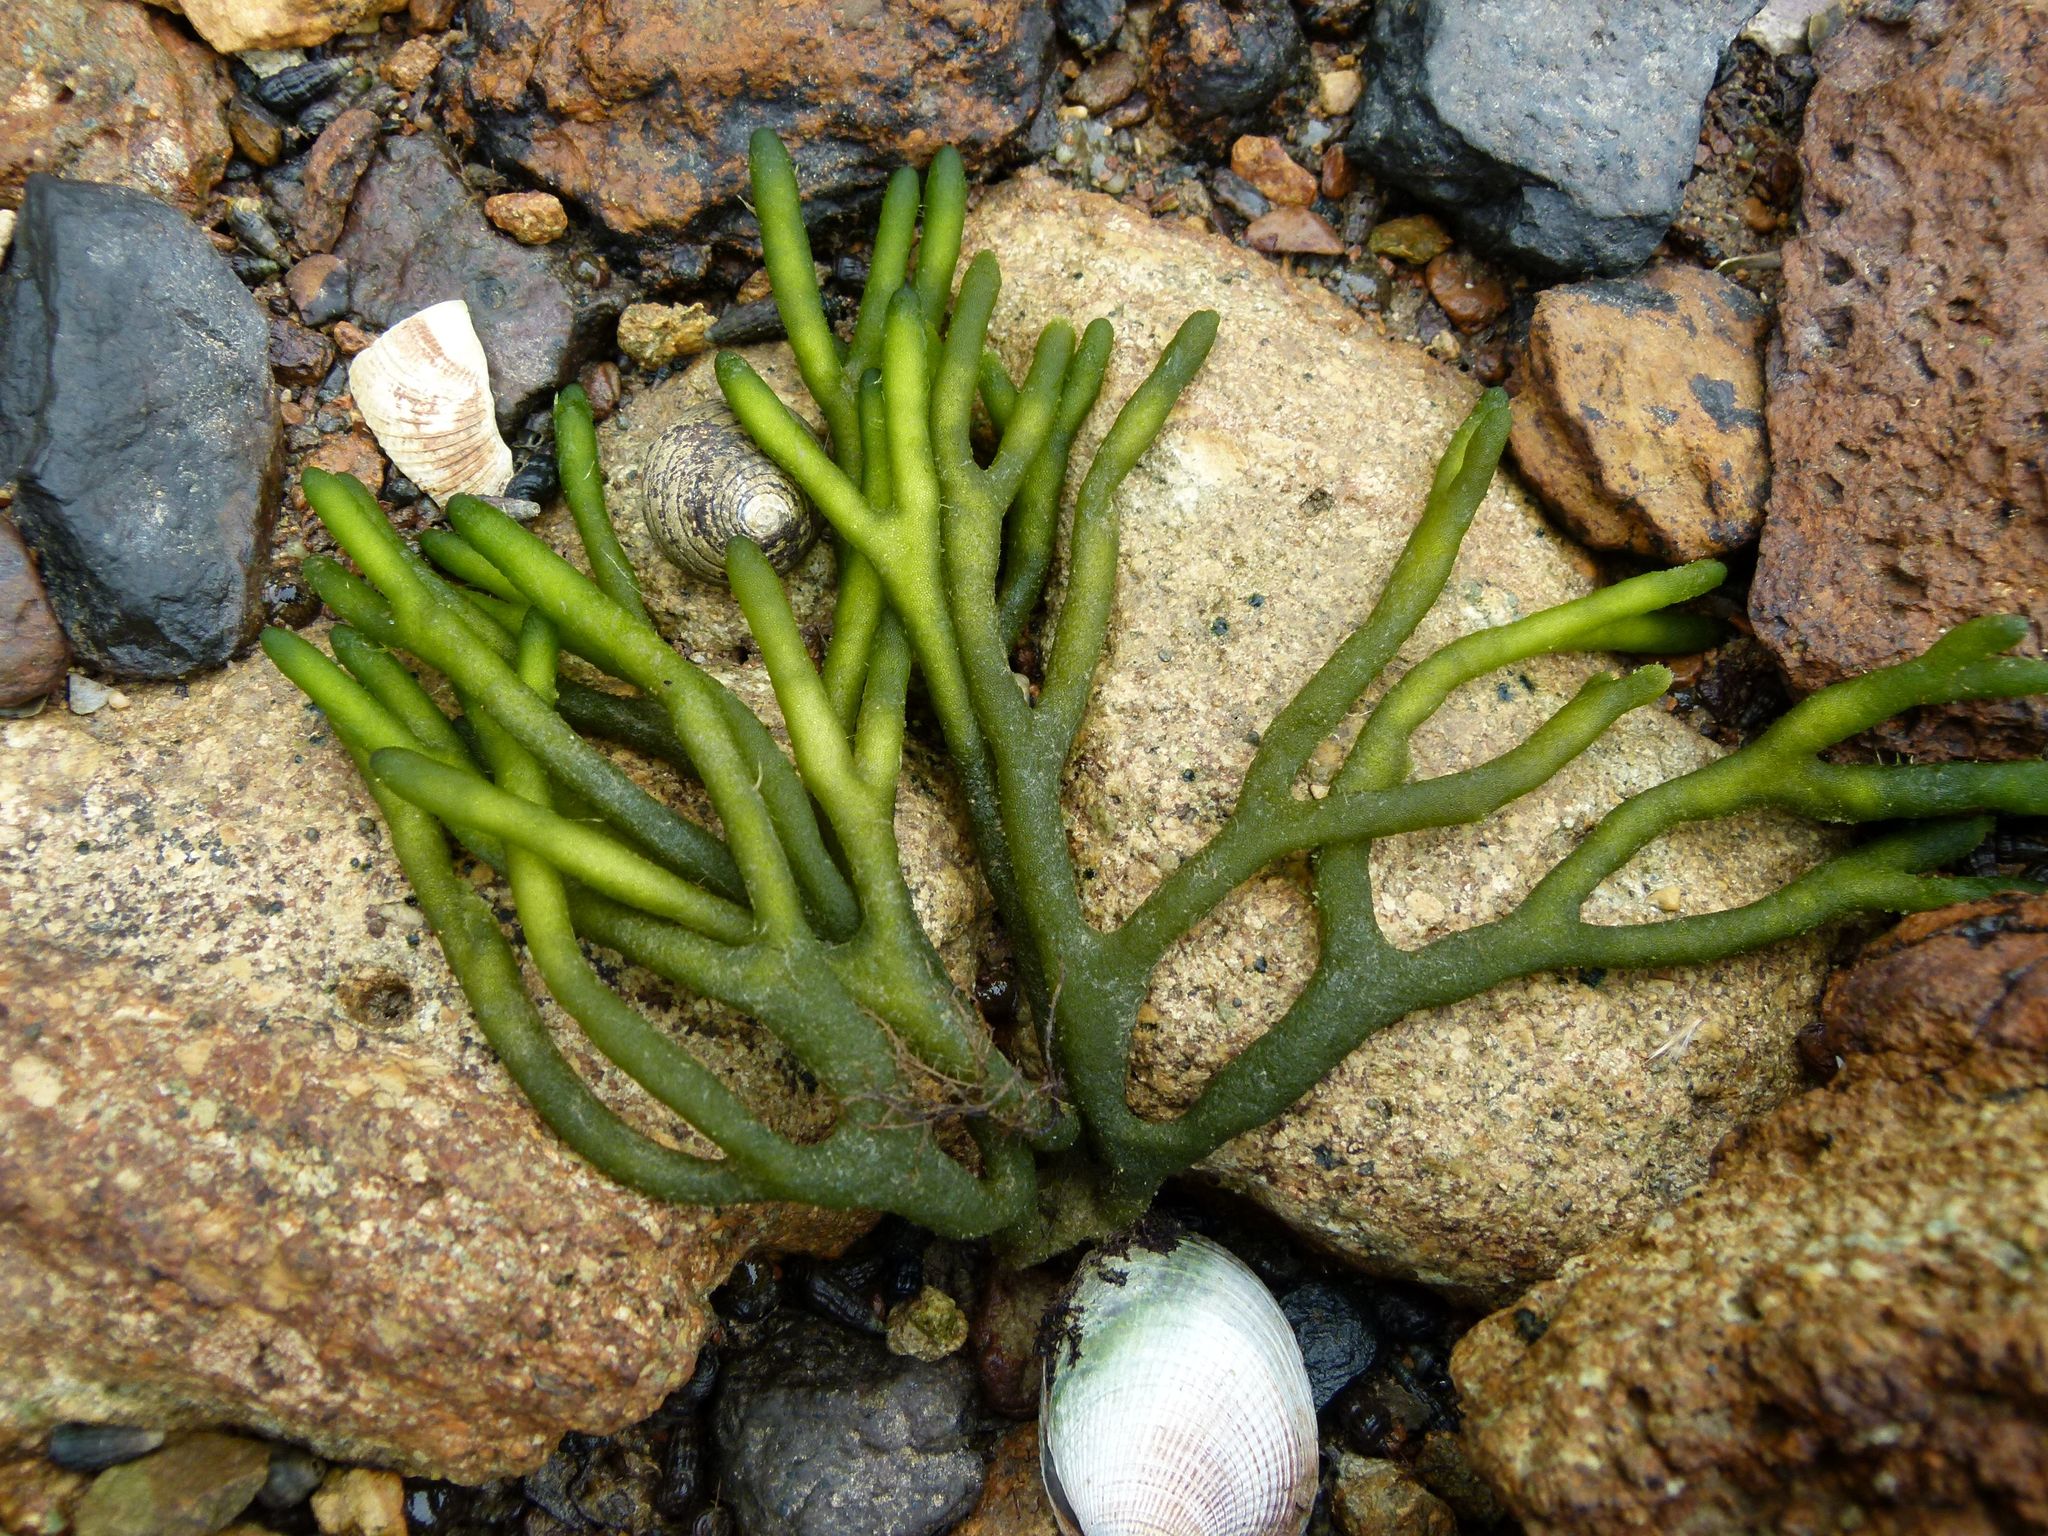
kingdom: Plantae
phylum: Chlorophyta
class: Ulvophyceae
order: Bryopsidales
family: Codiaceae
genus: Codium
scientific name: Codium fragile
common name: Dead man's fingers
